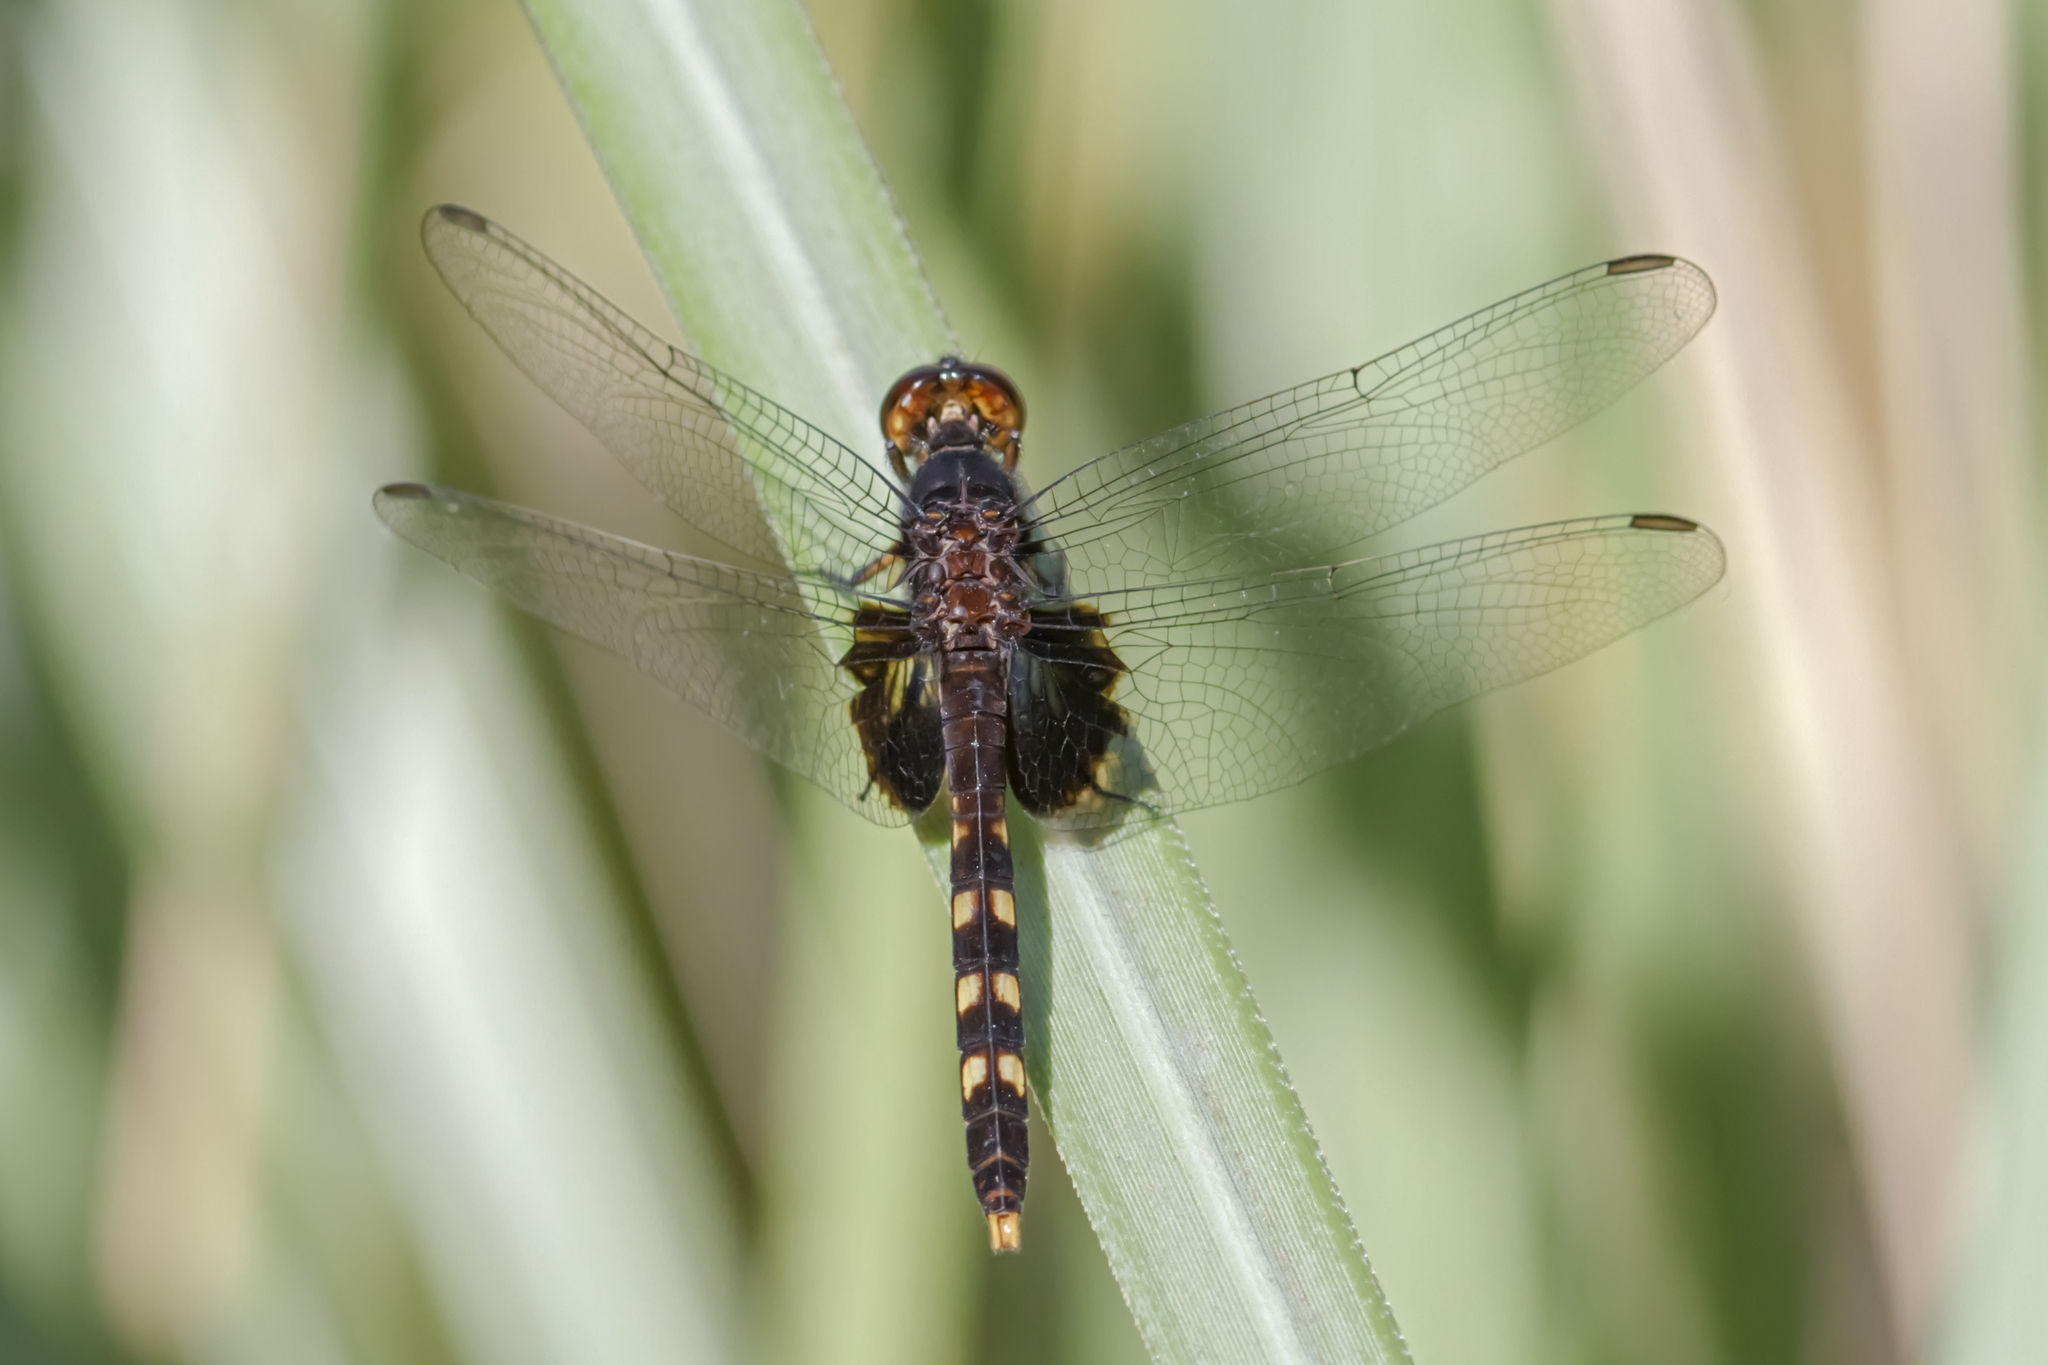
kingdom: Animalia
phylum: Arthropoda
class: Insecta
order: Odonata
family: Libellulidae
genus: Erythemis
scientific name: Erythemis attala
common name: Black pondhawk
